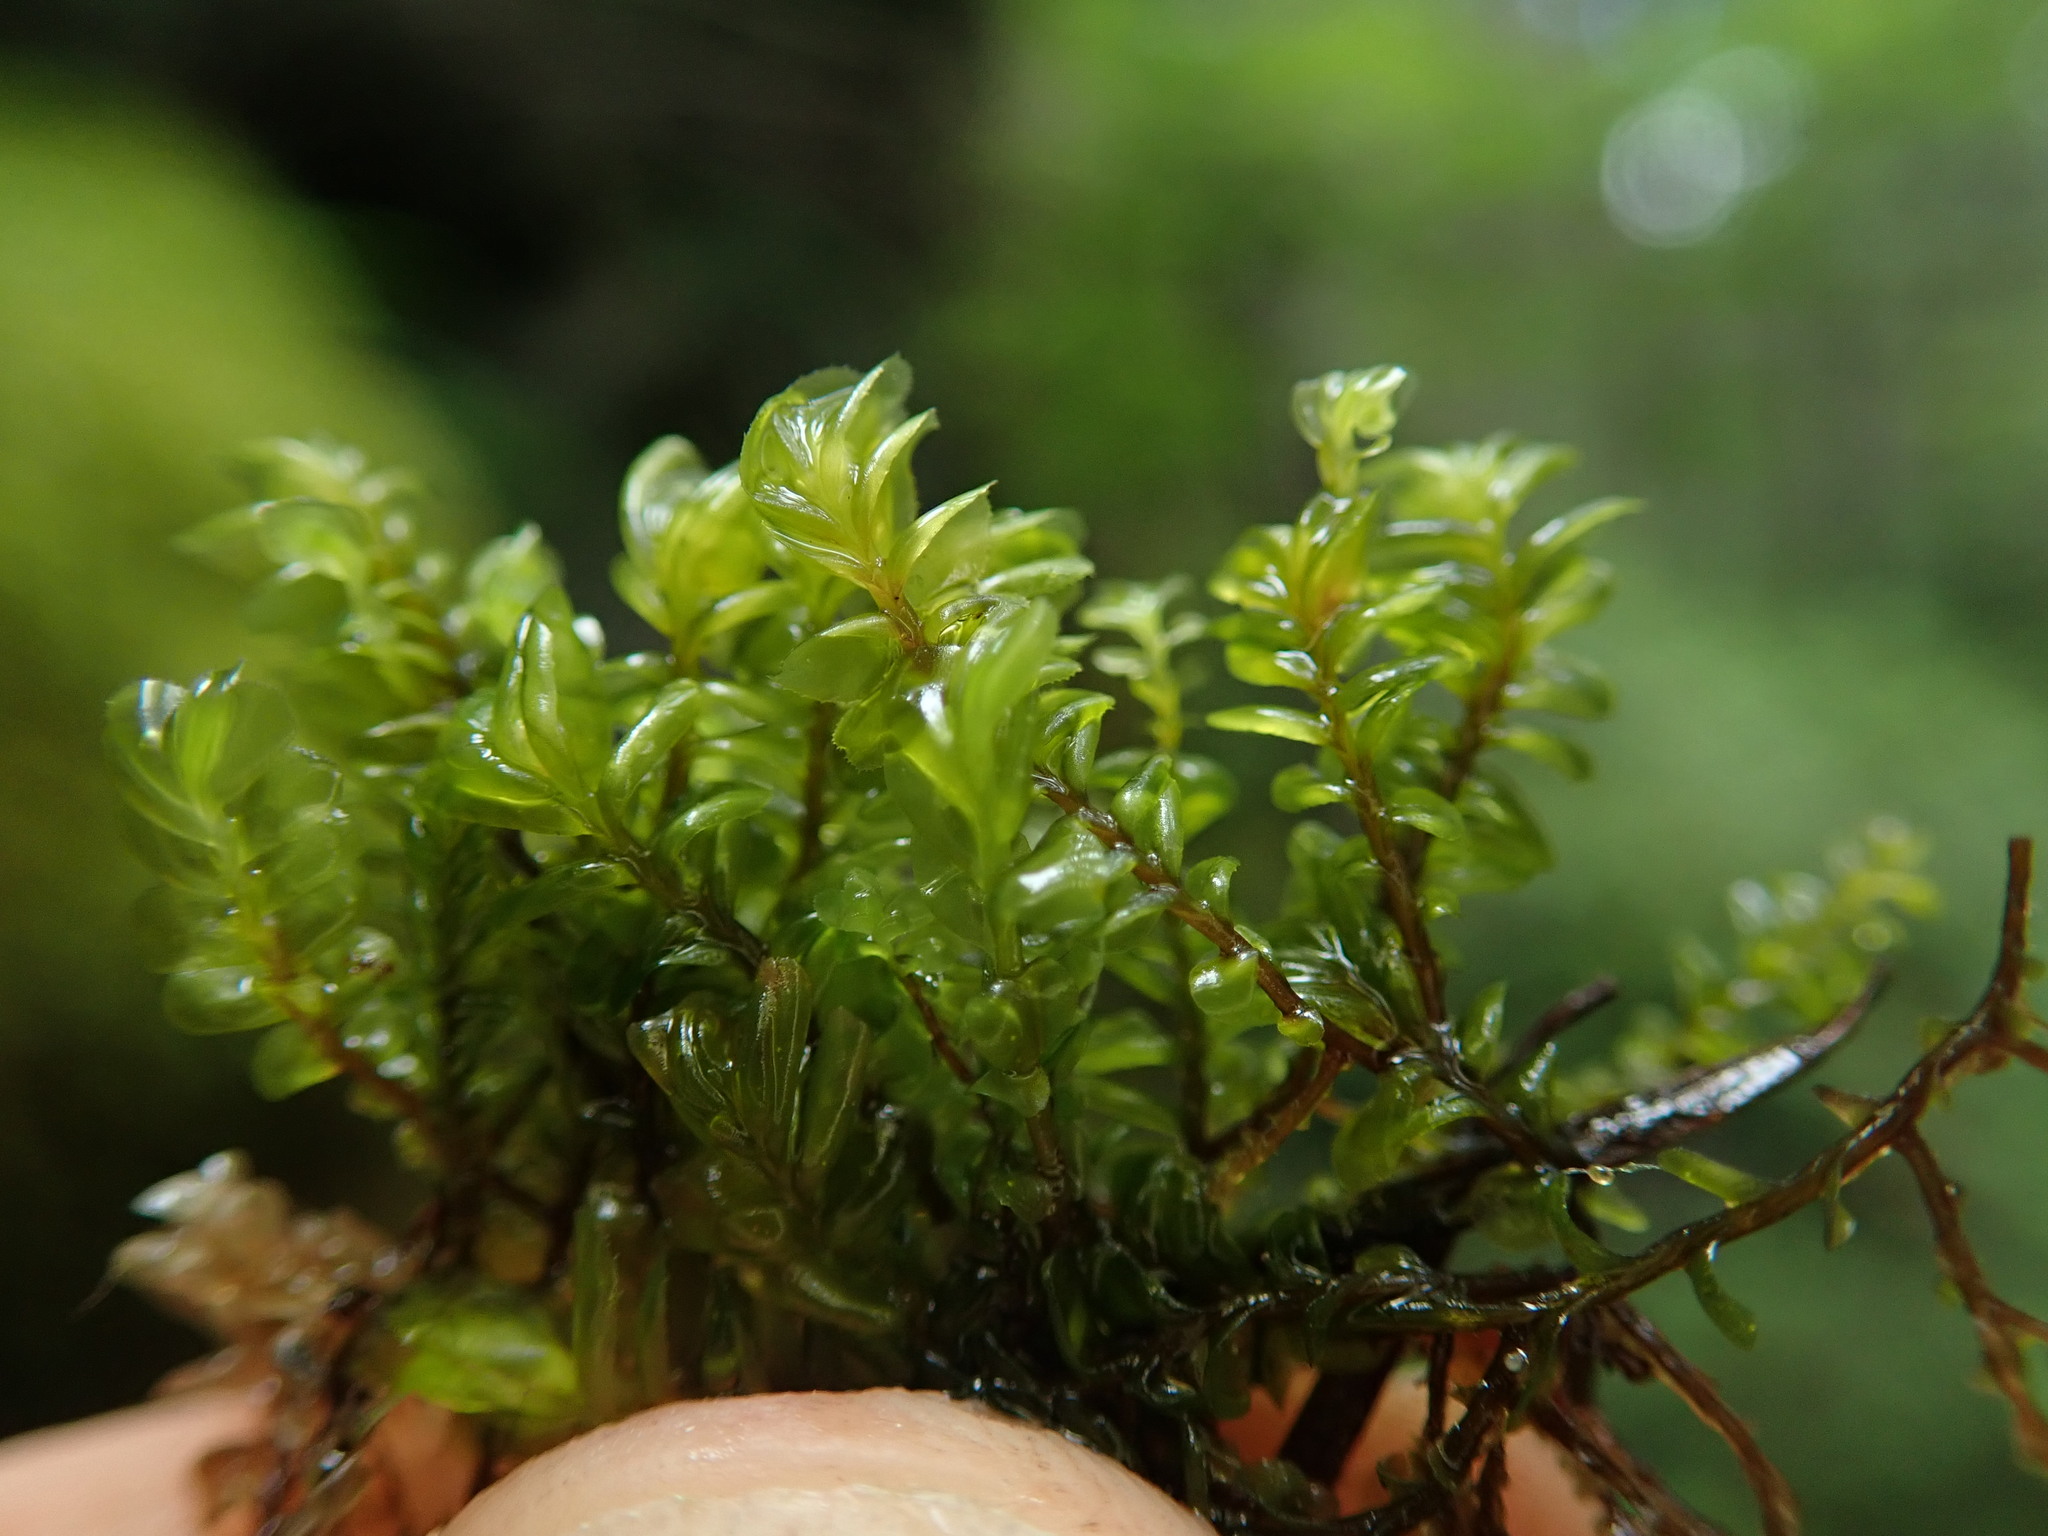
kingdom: Plantae
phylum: Marchantiophyta
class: Jungermanniopsida
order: Jungermanniales
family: Plagiochilaceae
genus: Plagiochila
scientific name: Plagiochila porelloides
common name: Lesser featherwort
